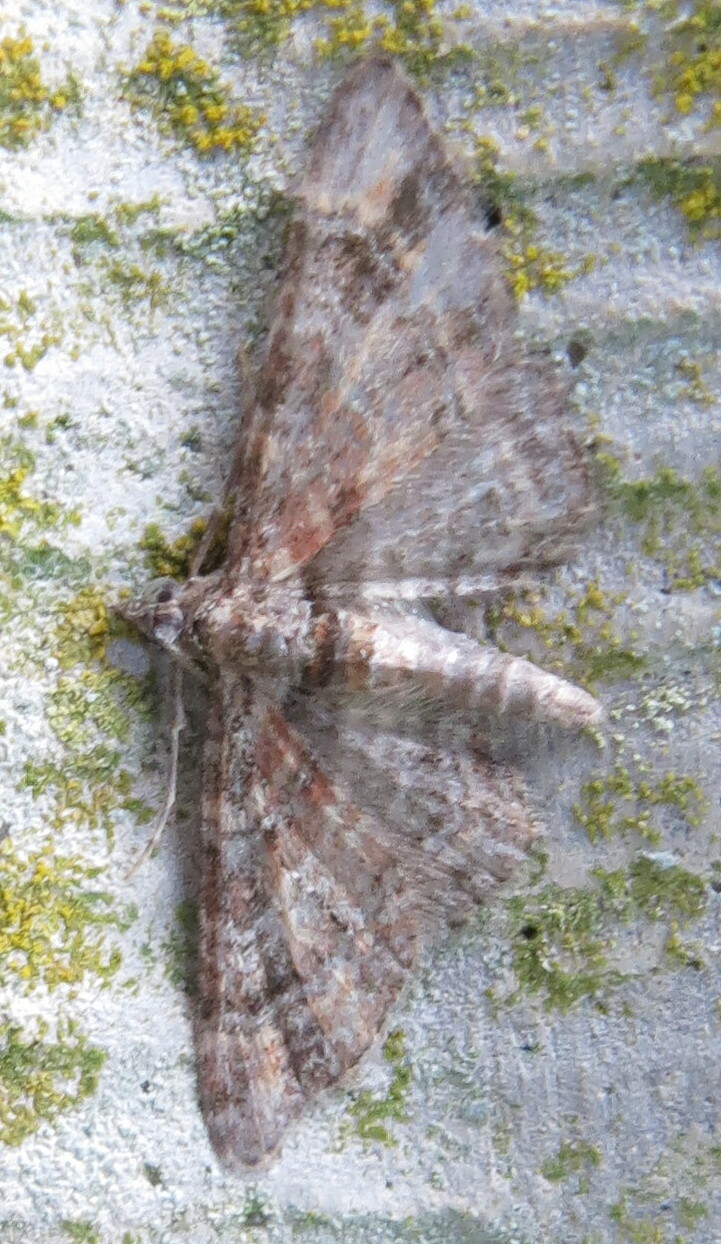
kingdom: Animalia
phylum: Arthropoda
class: Insecta
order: Lepidoptera
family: Geometridae
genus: Gymnoscelis
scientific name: Gymnoscelis rufifasciata
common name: Double-striped pug
